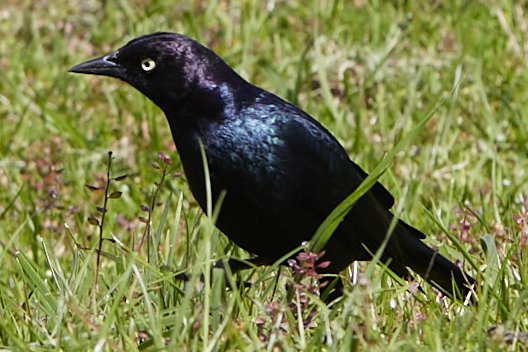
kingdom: Animalia
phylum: Chordata
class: Aves
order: Passeriformes
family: Icteridae
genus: Euphagus
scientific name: Euphagus cyanocephalus
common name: Brewer's blackbird
